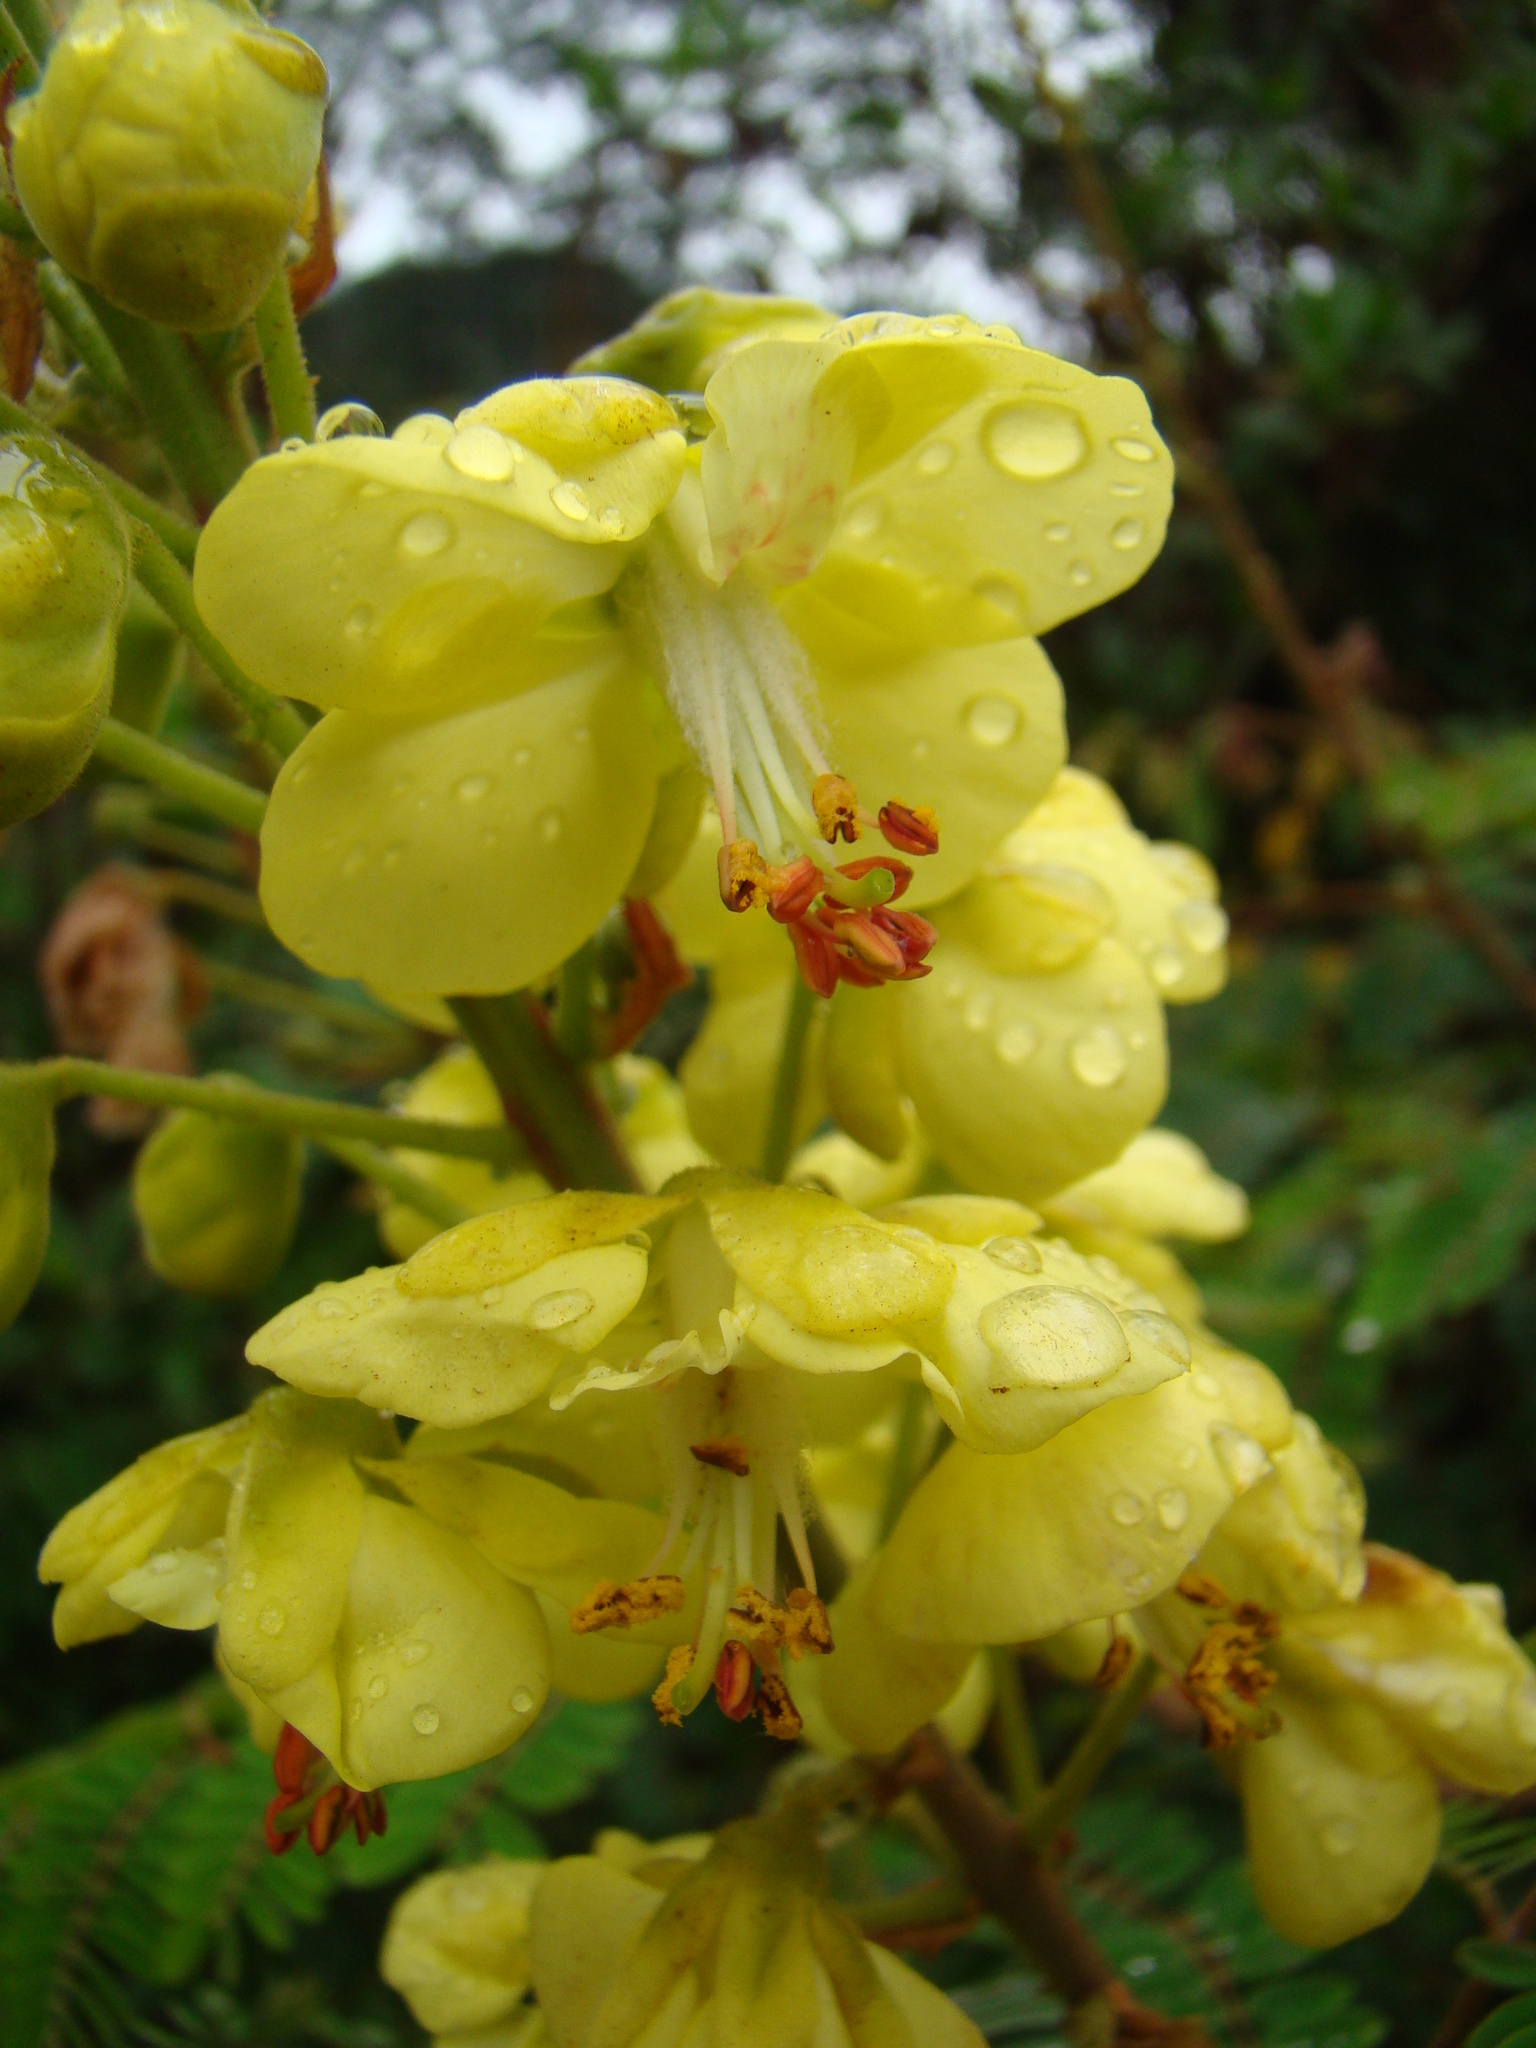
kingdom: Plantae
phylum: Tracheophyta
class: Magnoliopsida
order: Fabales
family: Fabaceae
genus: Biancaea
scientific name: Biancaea decapetala
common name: Cat's claw
